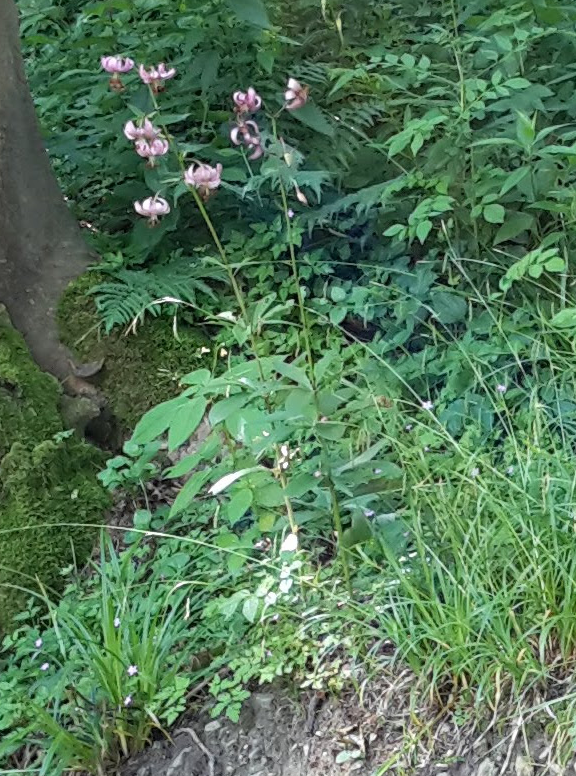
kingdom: Plantae
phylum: Tracheophyta
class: Liliopsida
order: Liliales
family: Liliaceae
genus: Lilium
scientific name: Lilium martagon
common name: Martagon lily
